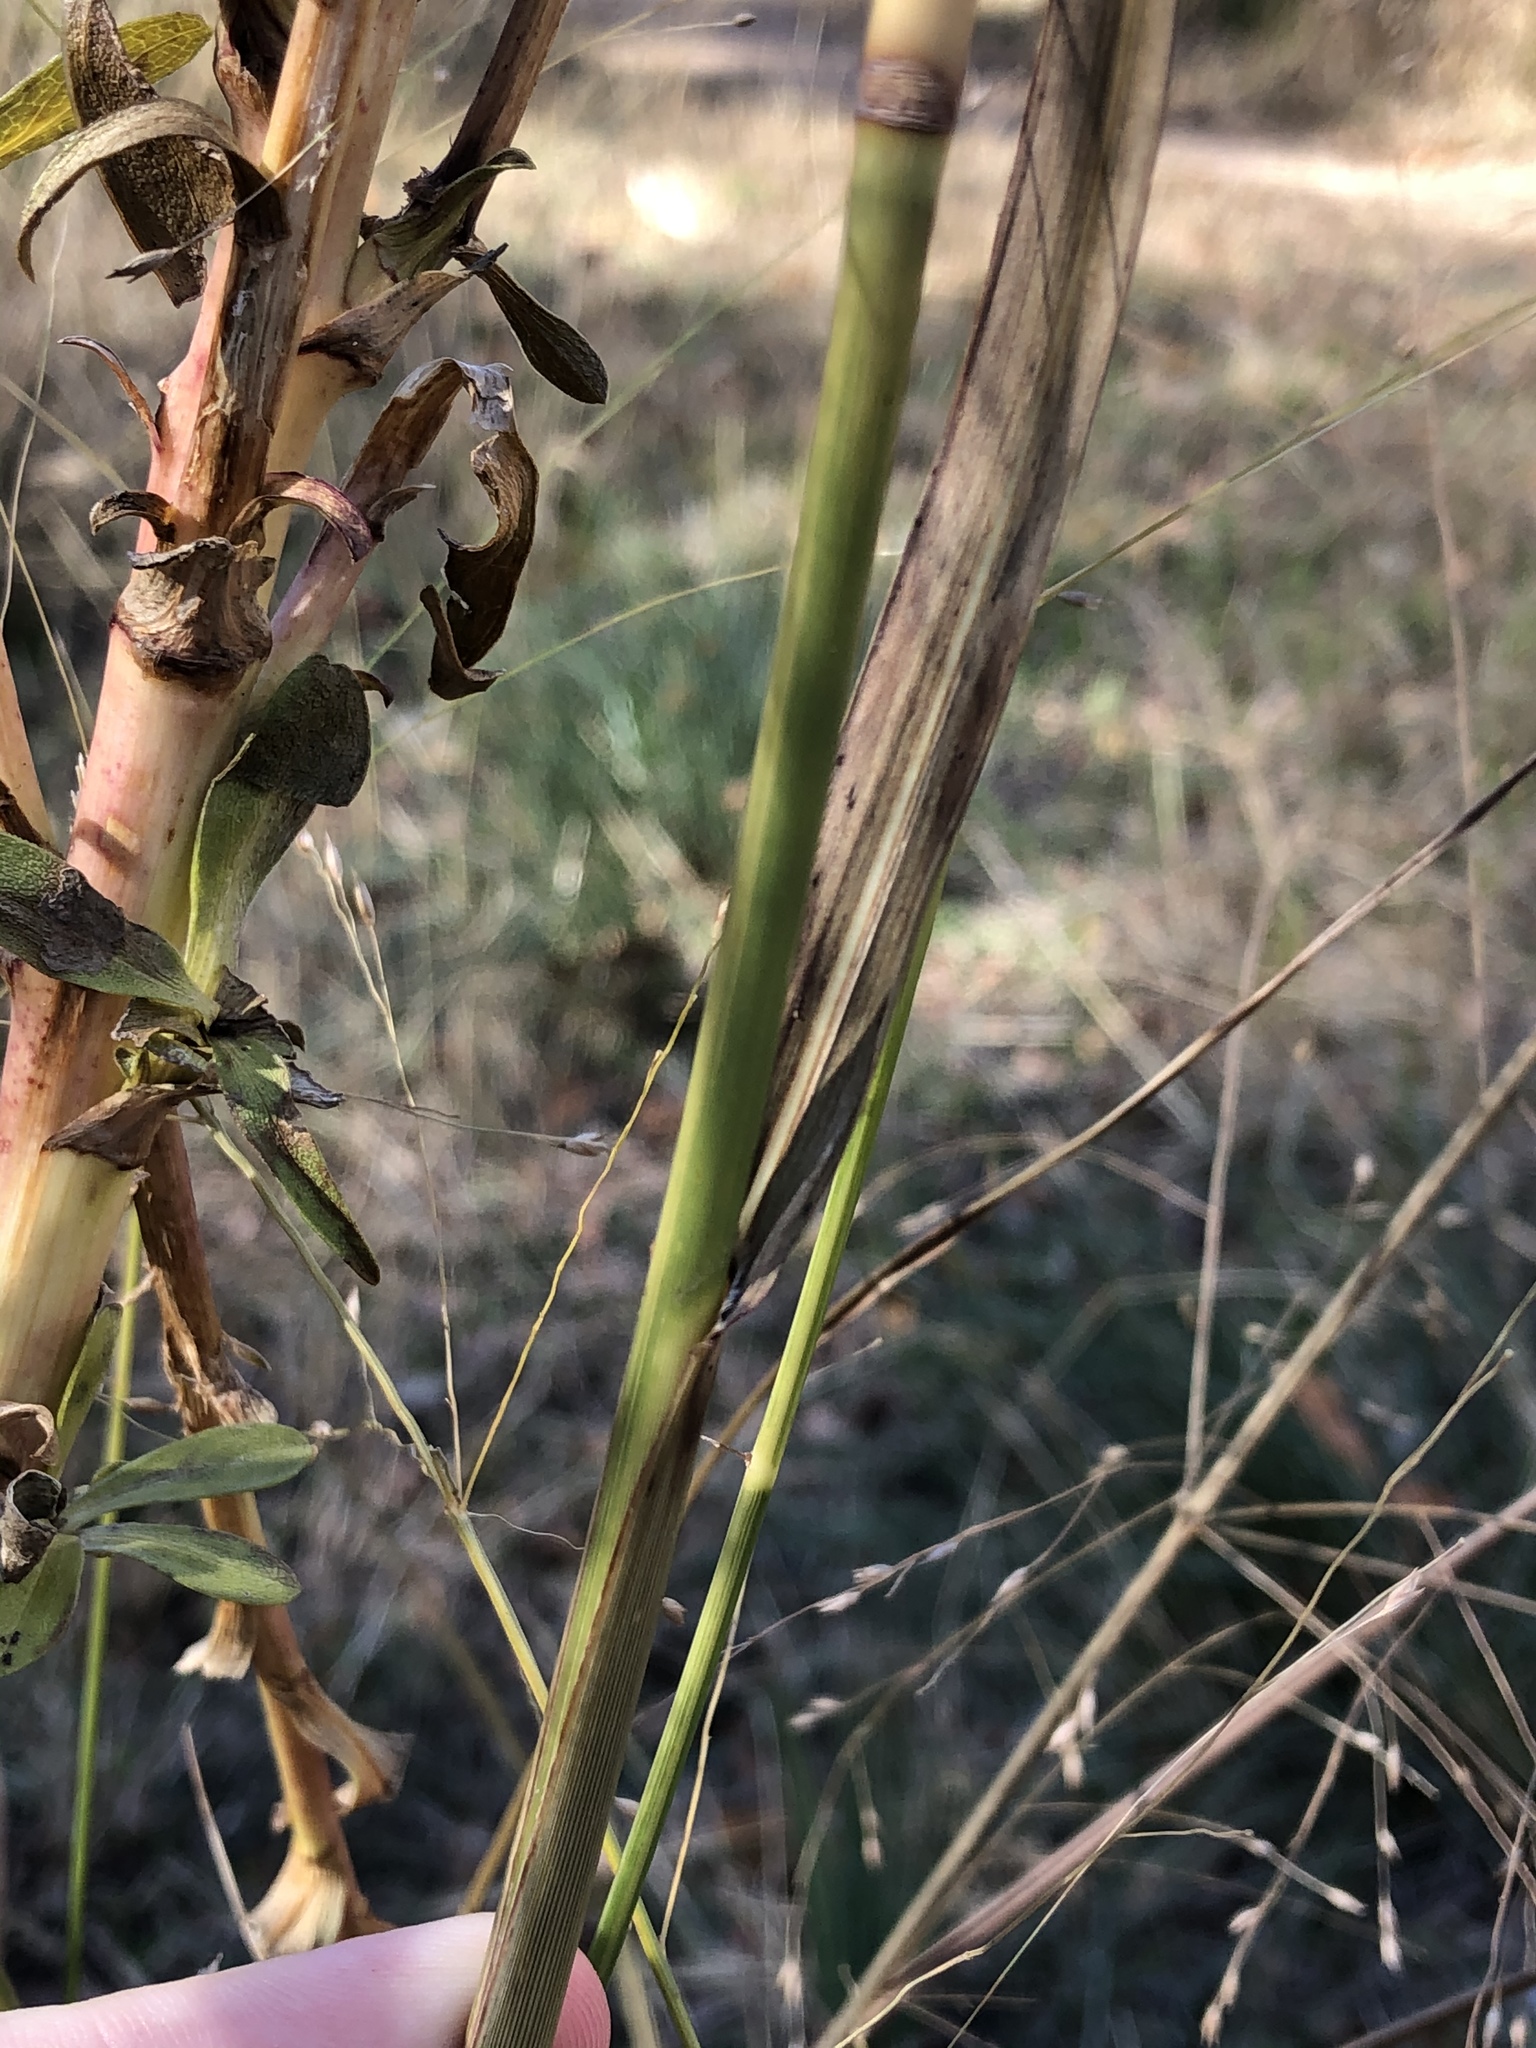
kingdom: Plantae
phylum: Tracheophyta
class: Liliopsida
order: Poales
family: Poaceae
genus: Panicum
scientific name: Panicum virgatum
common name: Switchgrass
